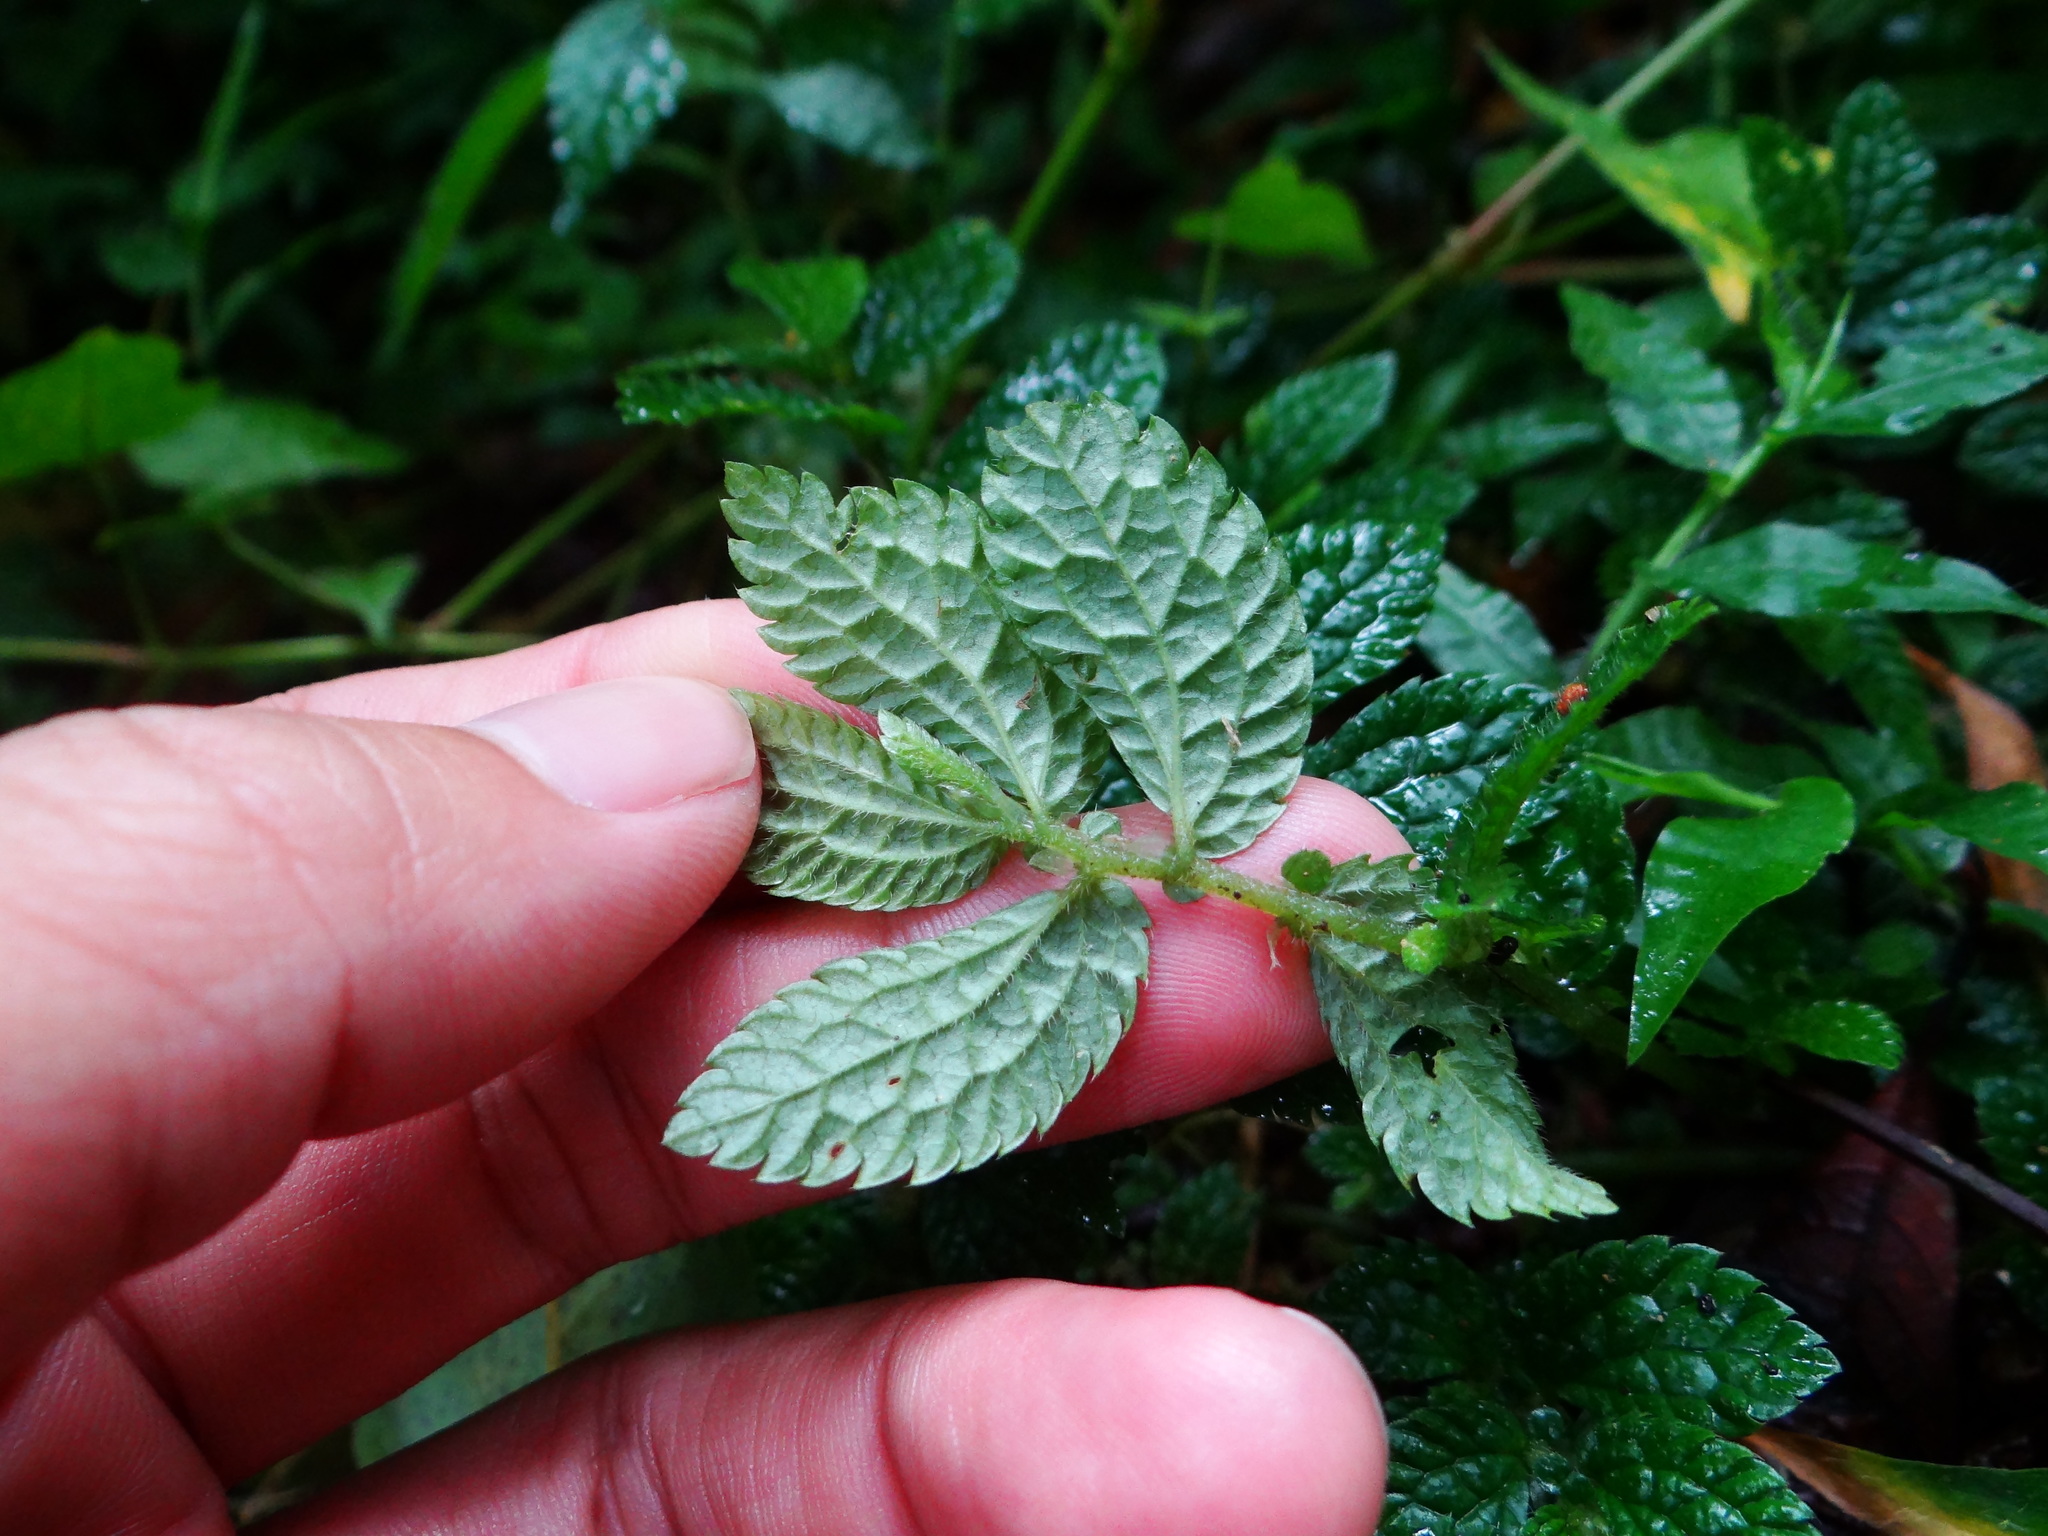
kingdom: Plantae
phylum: Tracheophyta
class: Magnoliopsida
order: Rosales
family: Urticaceae
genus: Elatostema
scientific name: Elatostema parvum
